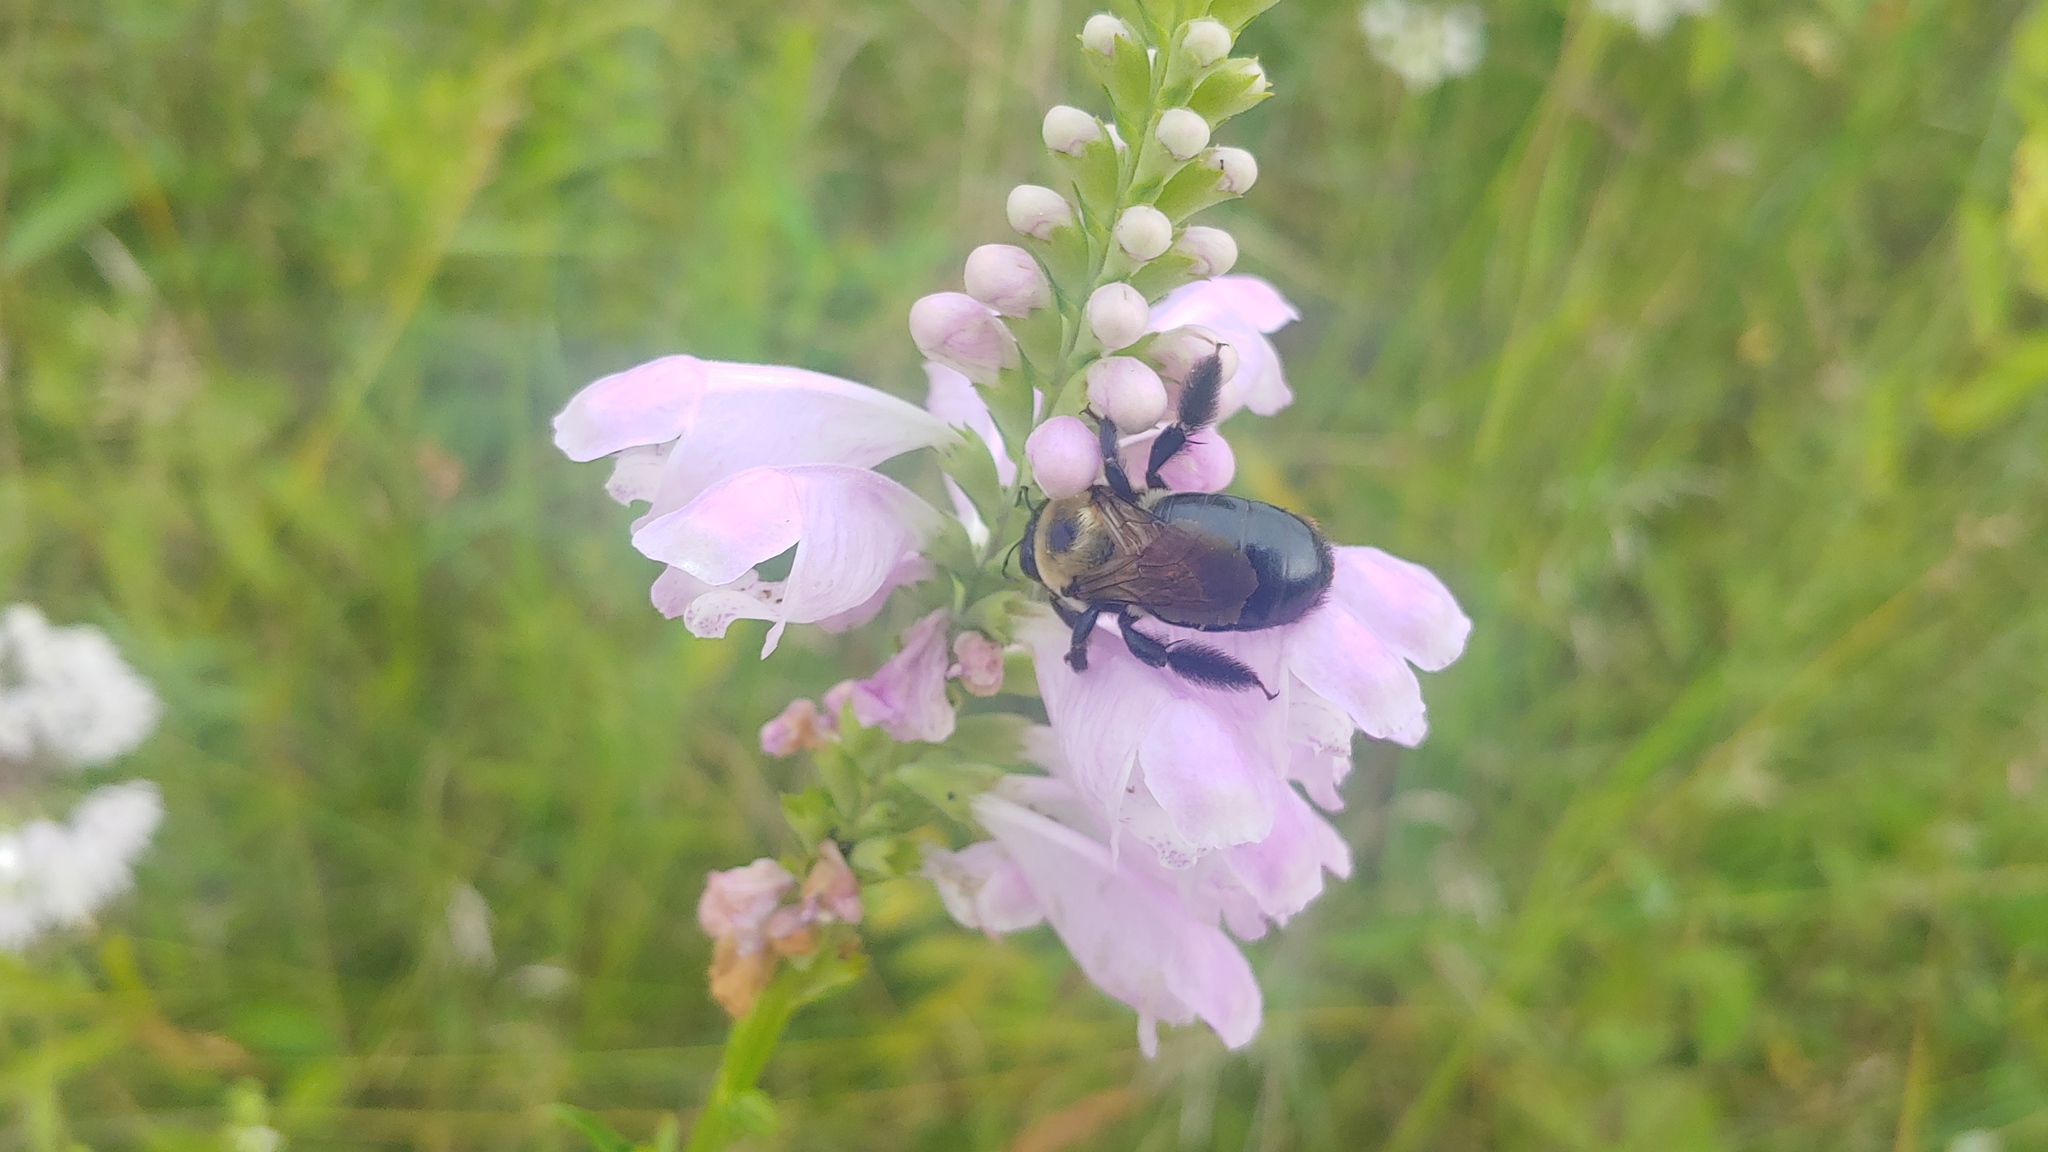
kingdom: Animalia
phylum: Arthropoda
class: Insecta
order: Hymenoptera
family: Apidae
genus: Xylocopa
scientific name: Xylocopa virginica
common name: Carpenter bee
